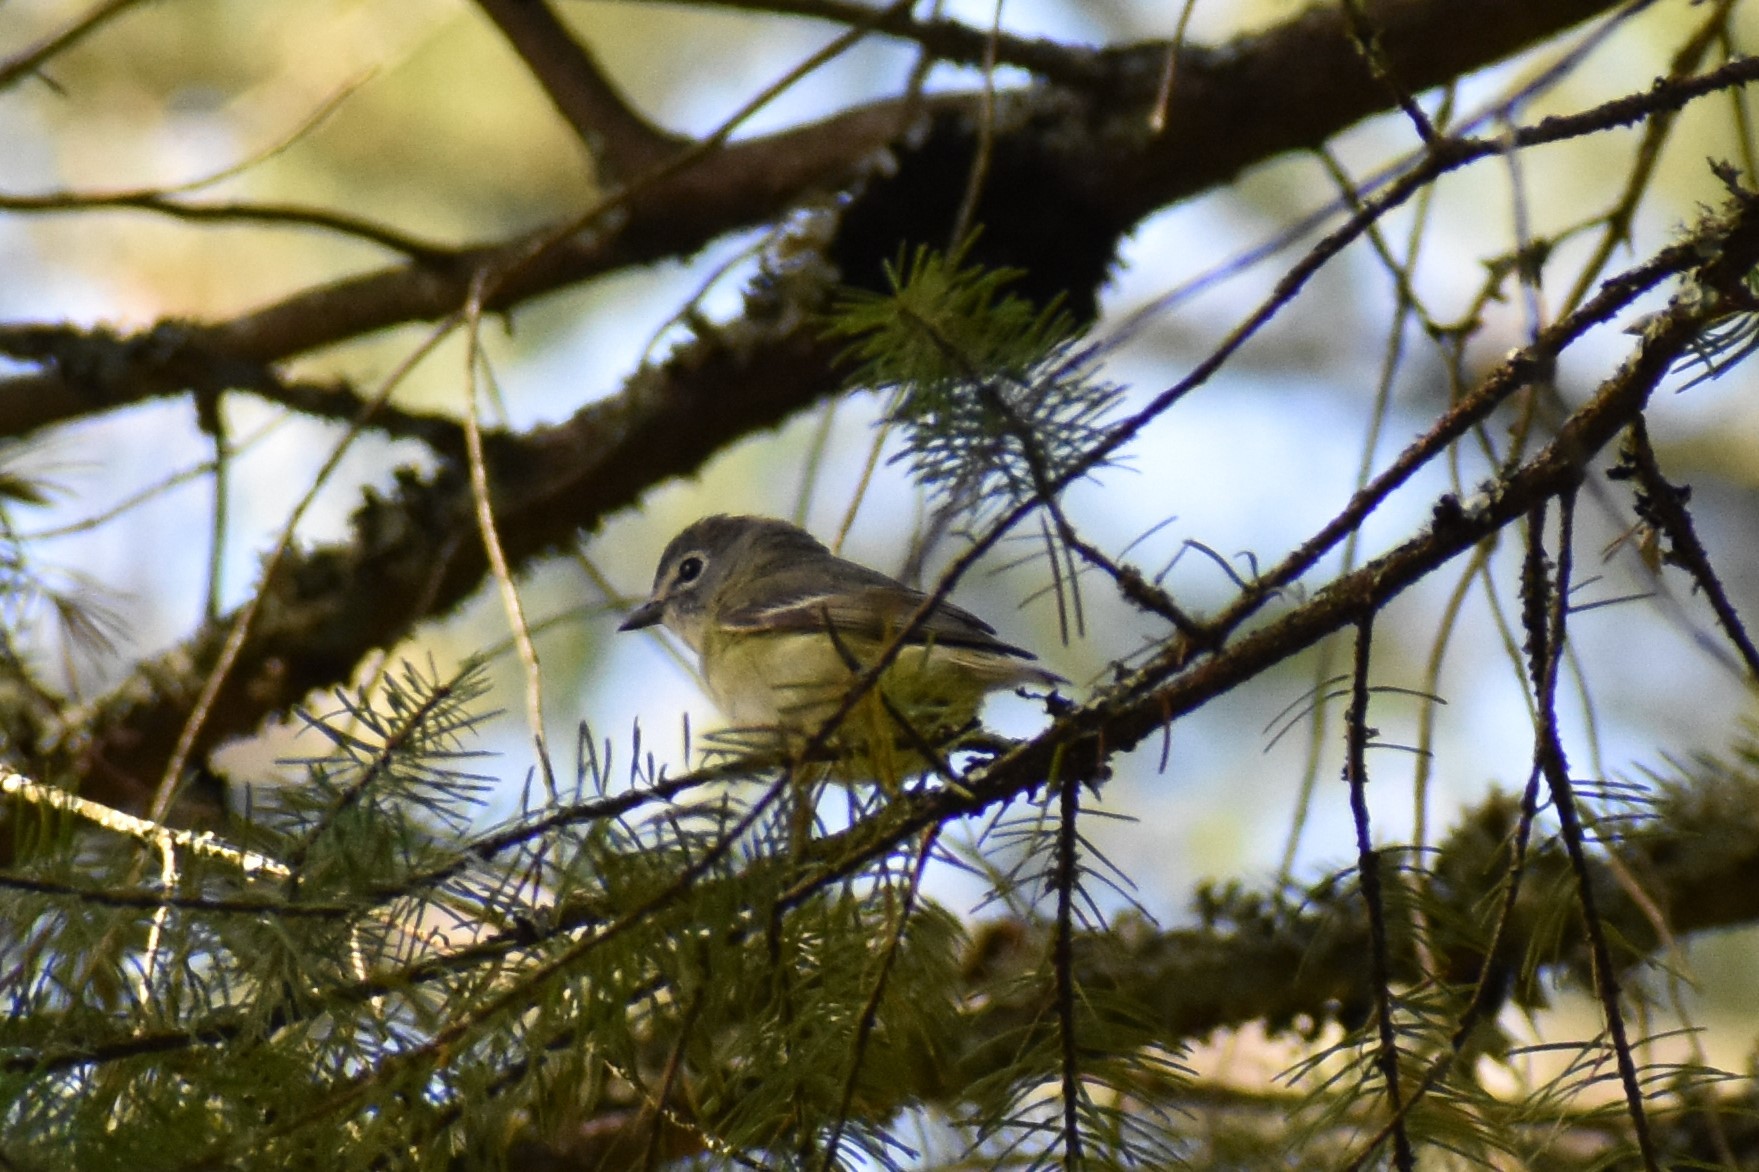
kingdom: Animalia
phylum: Chordata
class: Aves
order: Passeriformes
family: Vireonidae
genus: Vireo
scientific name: Vireo cassinii
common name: Cassin's vireo
